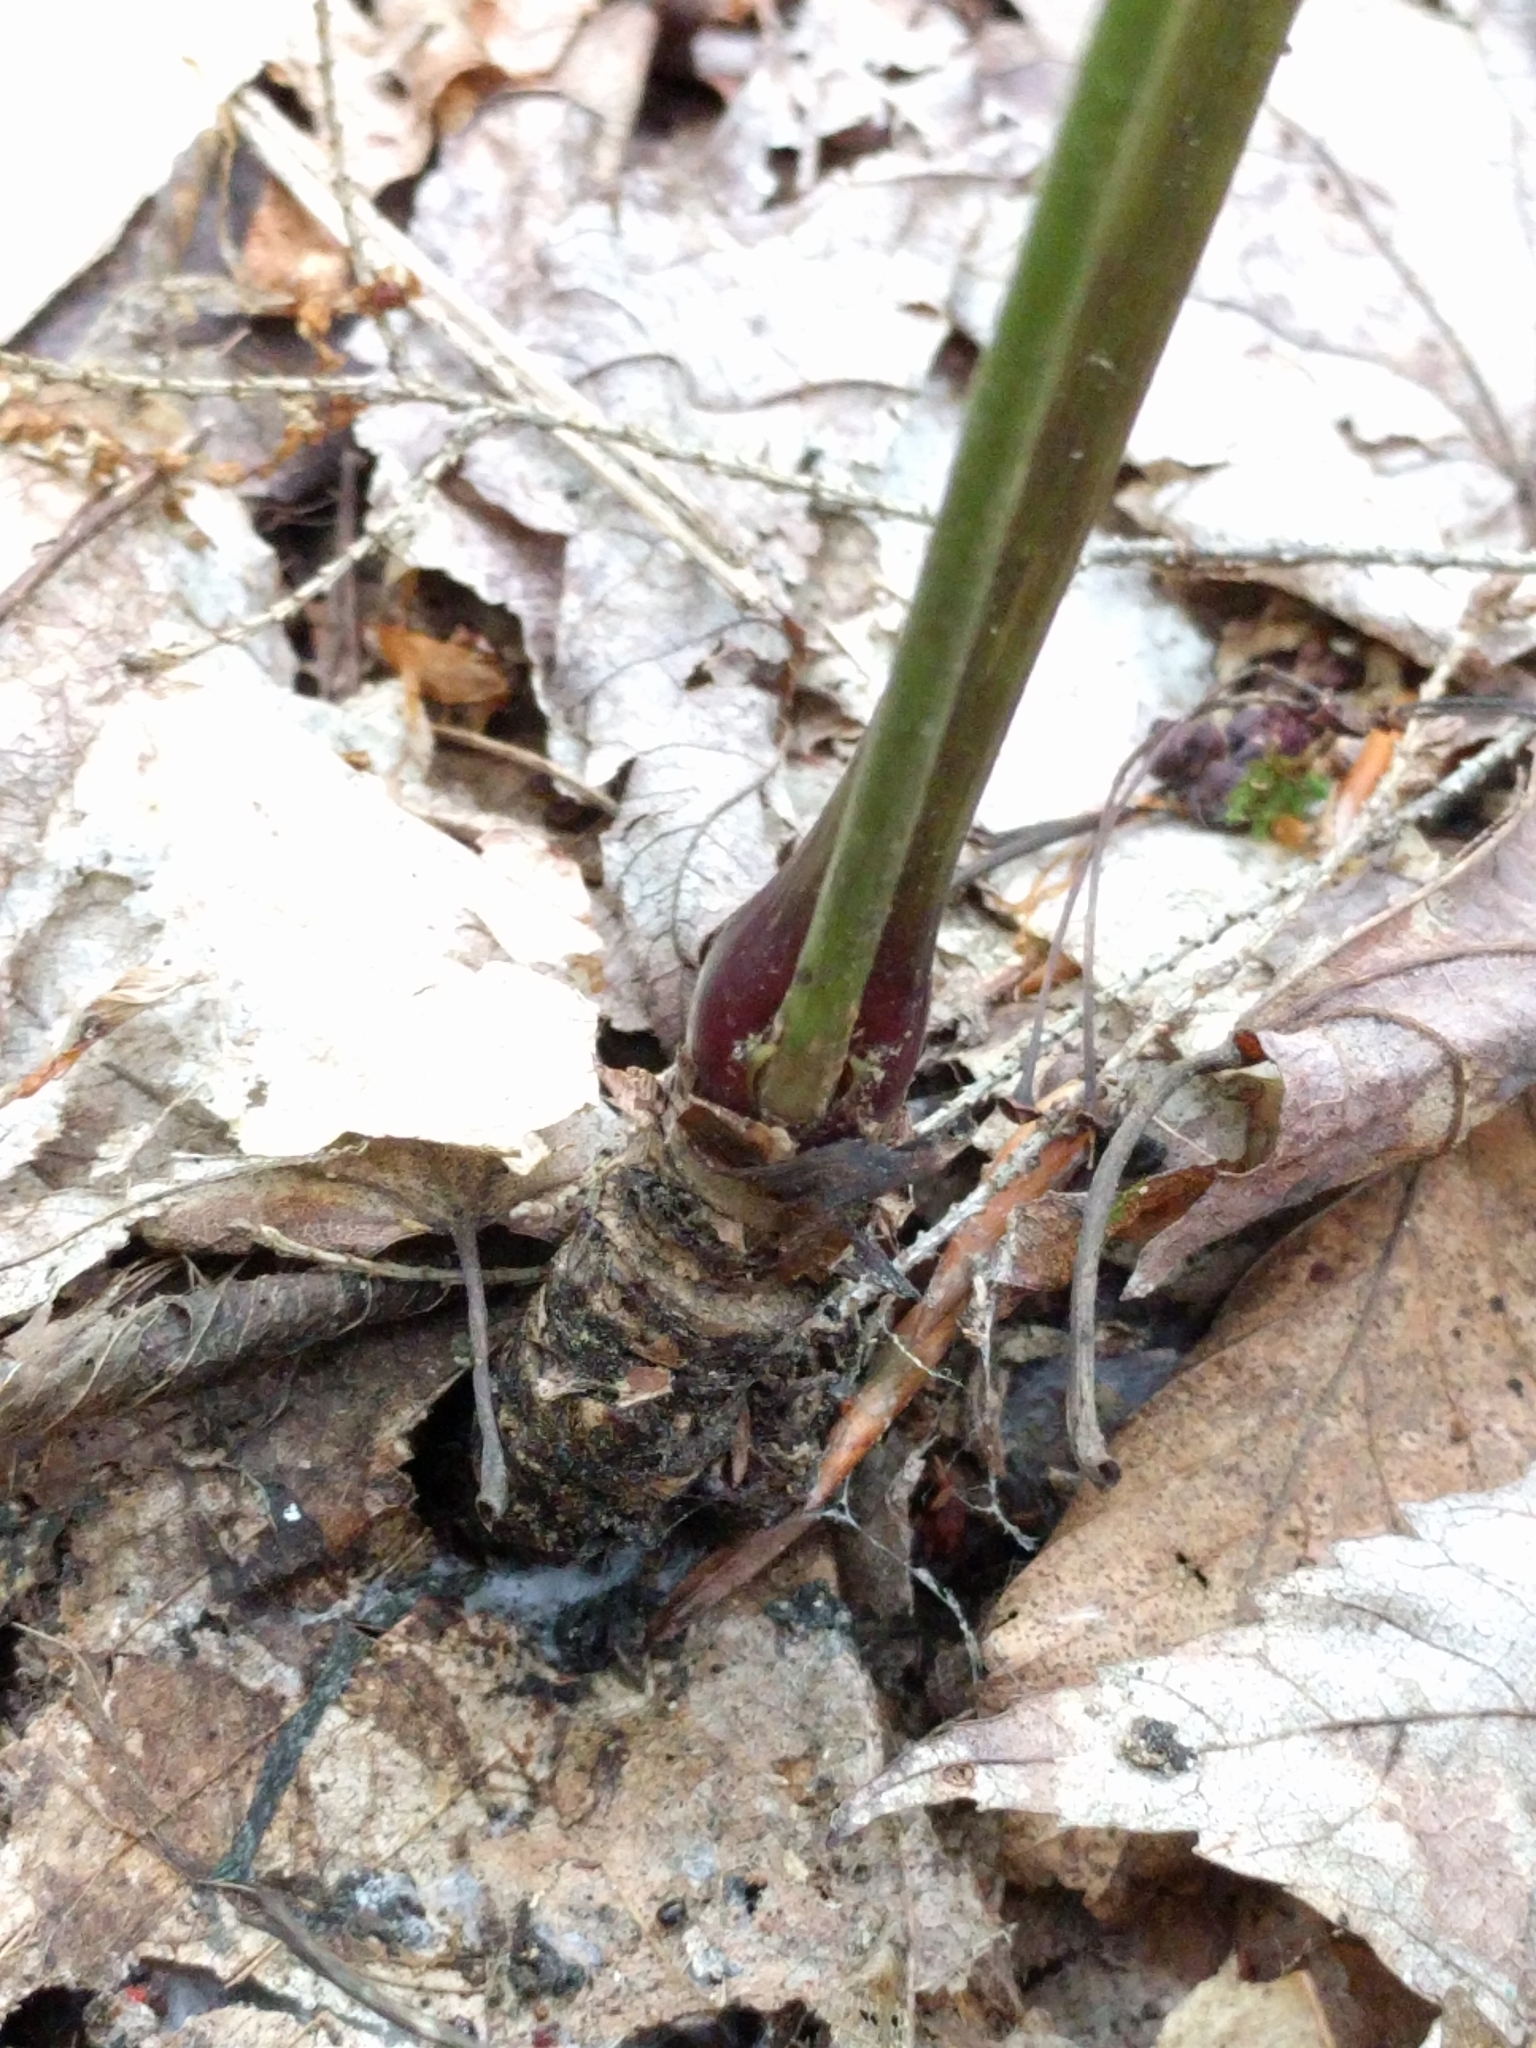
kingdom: Plantae
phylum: Tracheophyta
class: Magnoliopsida
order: Apiales
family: Araliaceae
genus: Aralia
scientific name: Aralia nudicaulis
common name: Wild sarsaparilla
